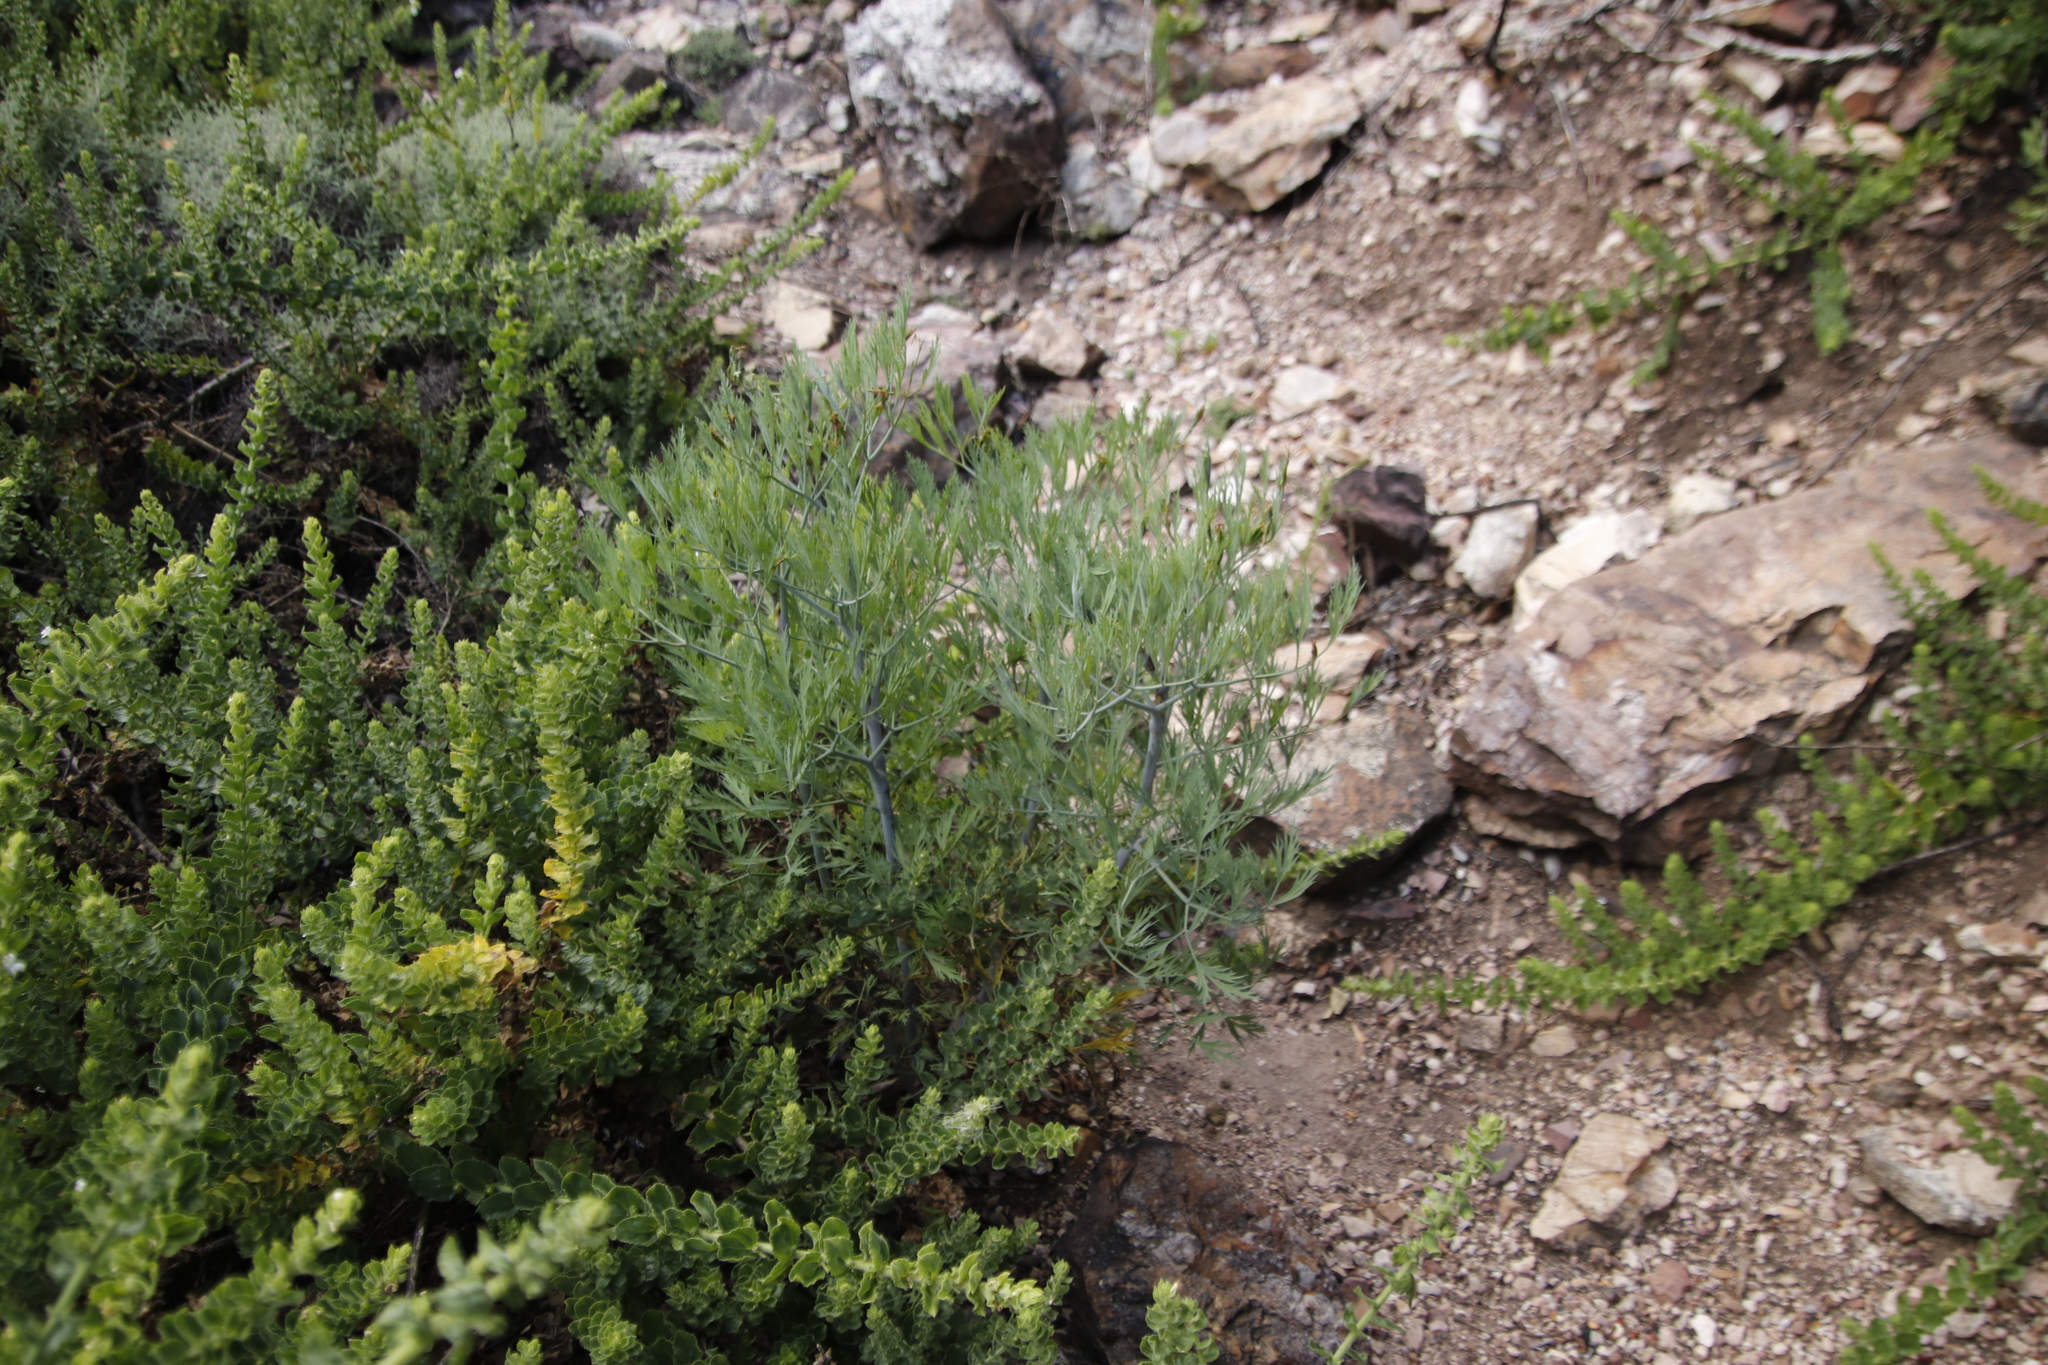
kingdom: Plantae
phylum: Tracheophyta
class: Magnoliopsida
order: Apiales
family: Apiaceae
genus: Notobubon
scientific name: Notobubon capense
